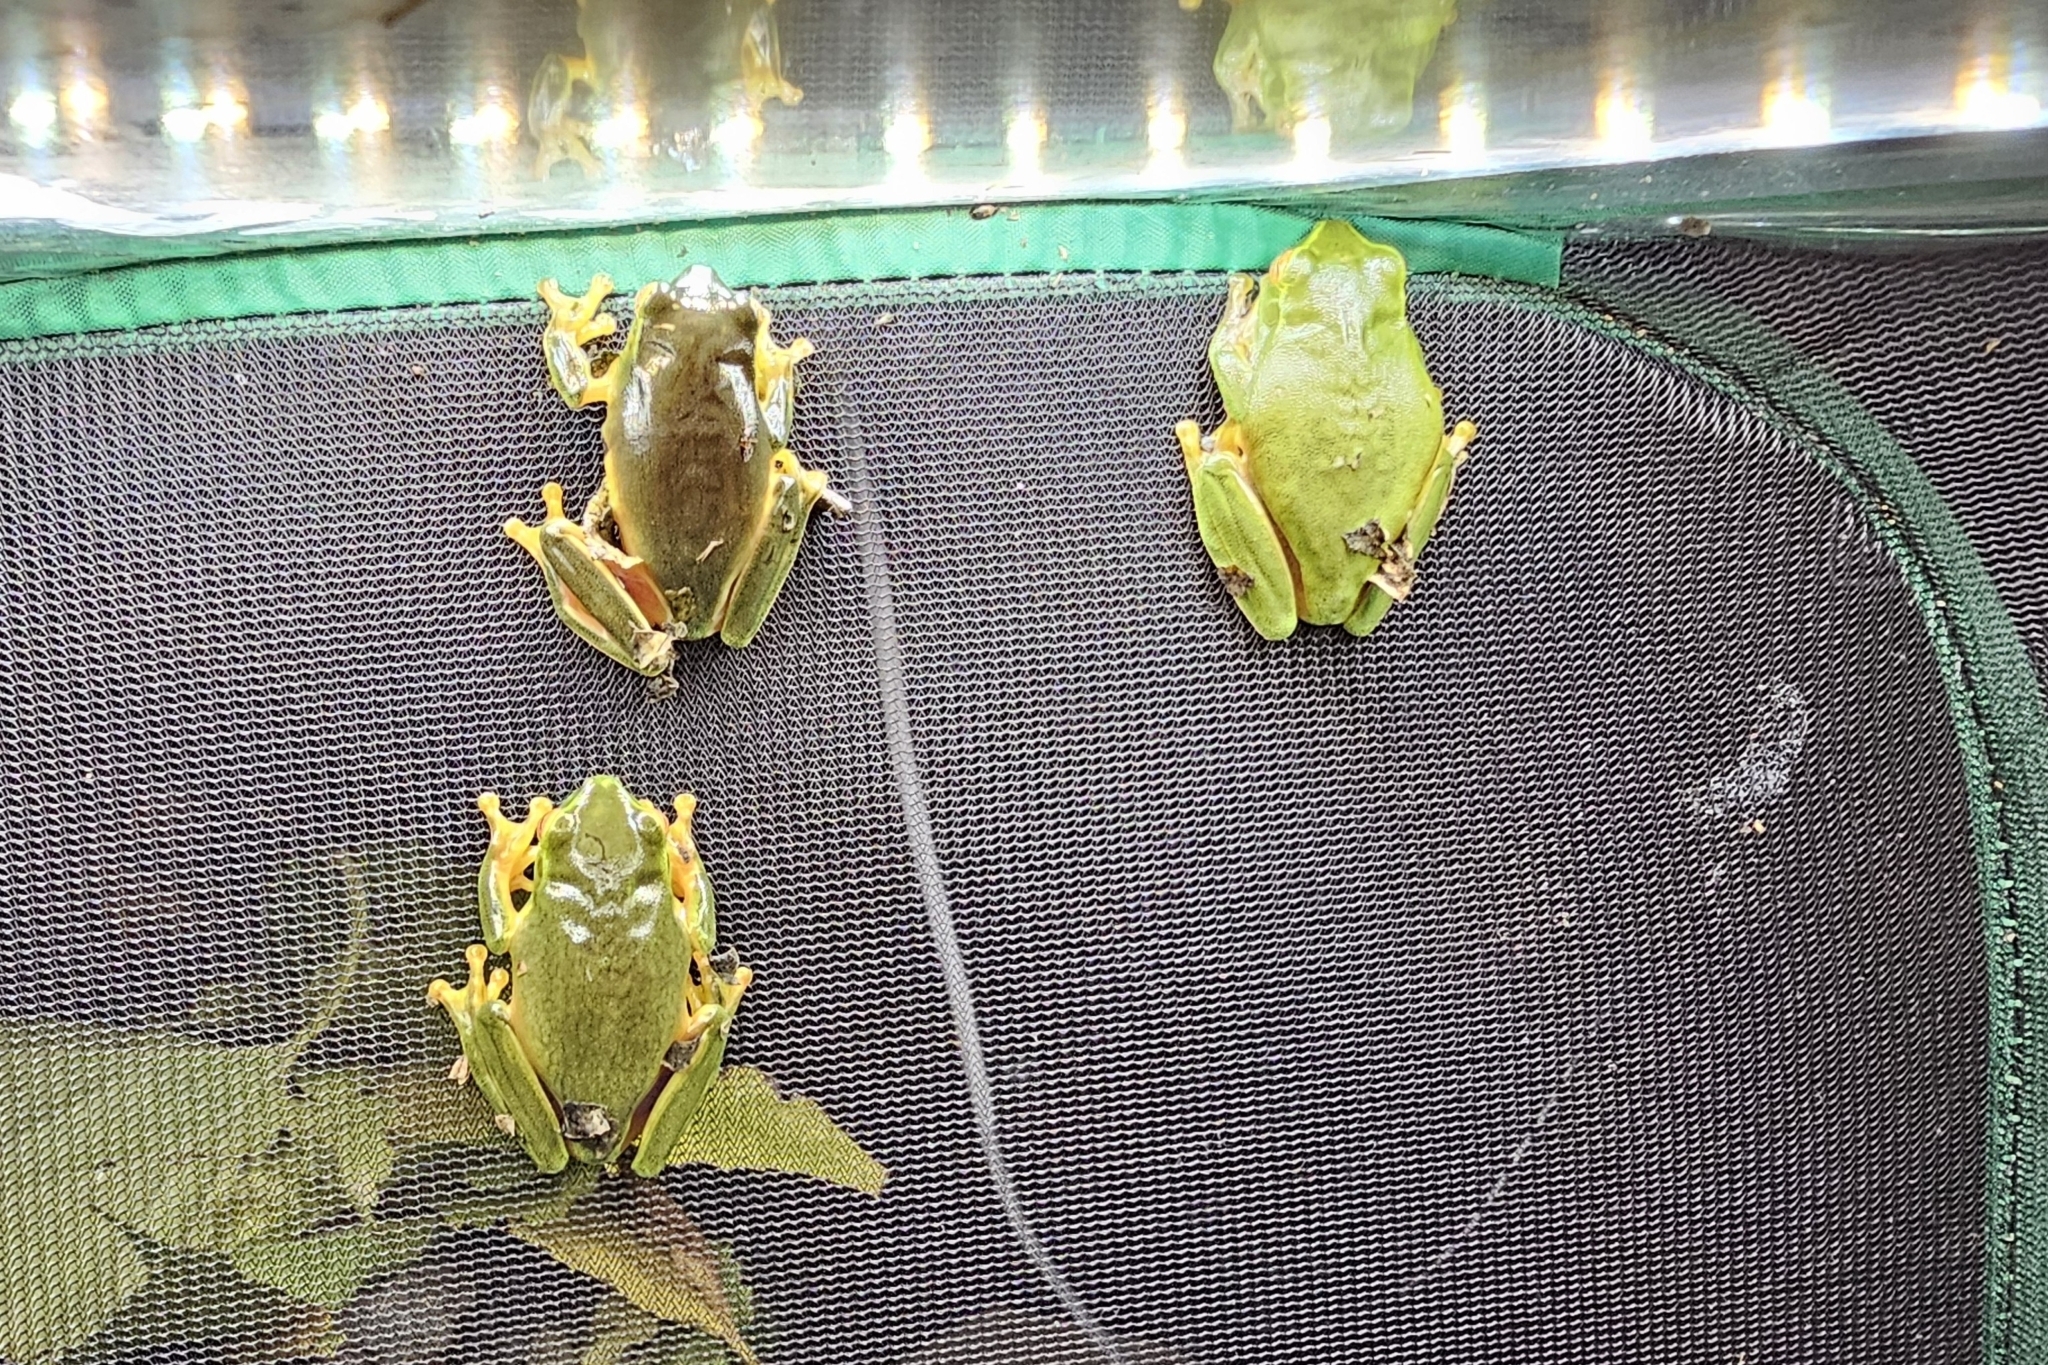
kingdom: Animalia
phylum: Chordata
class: Amphibia
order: Anura
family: Pelodryadidae
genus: Ranoidea
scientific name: Ranoidea gracilenta
